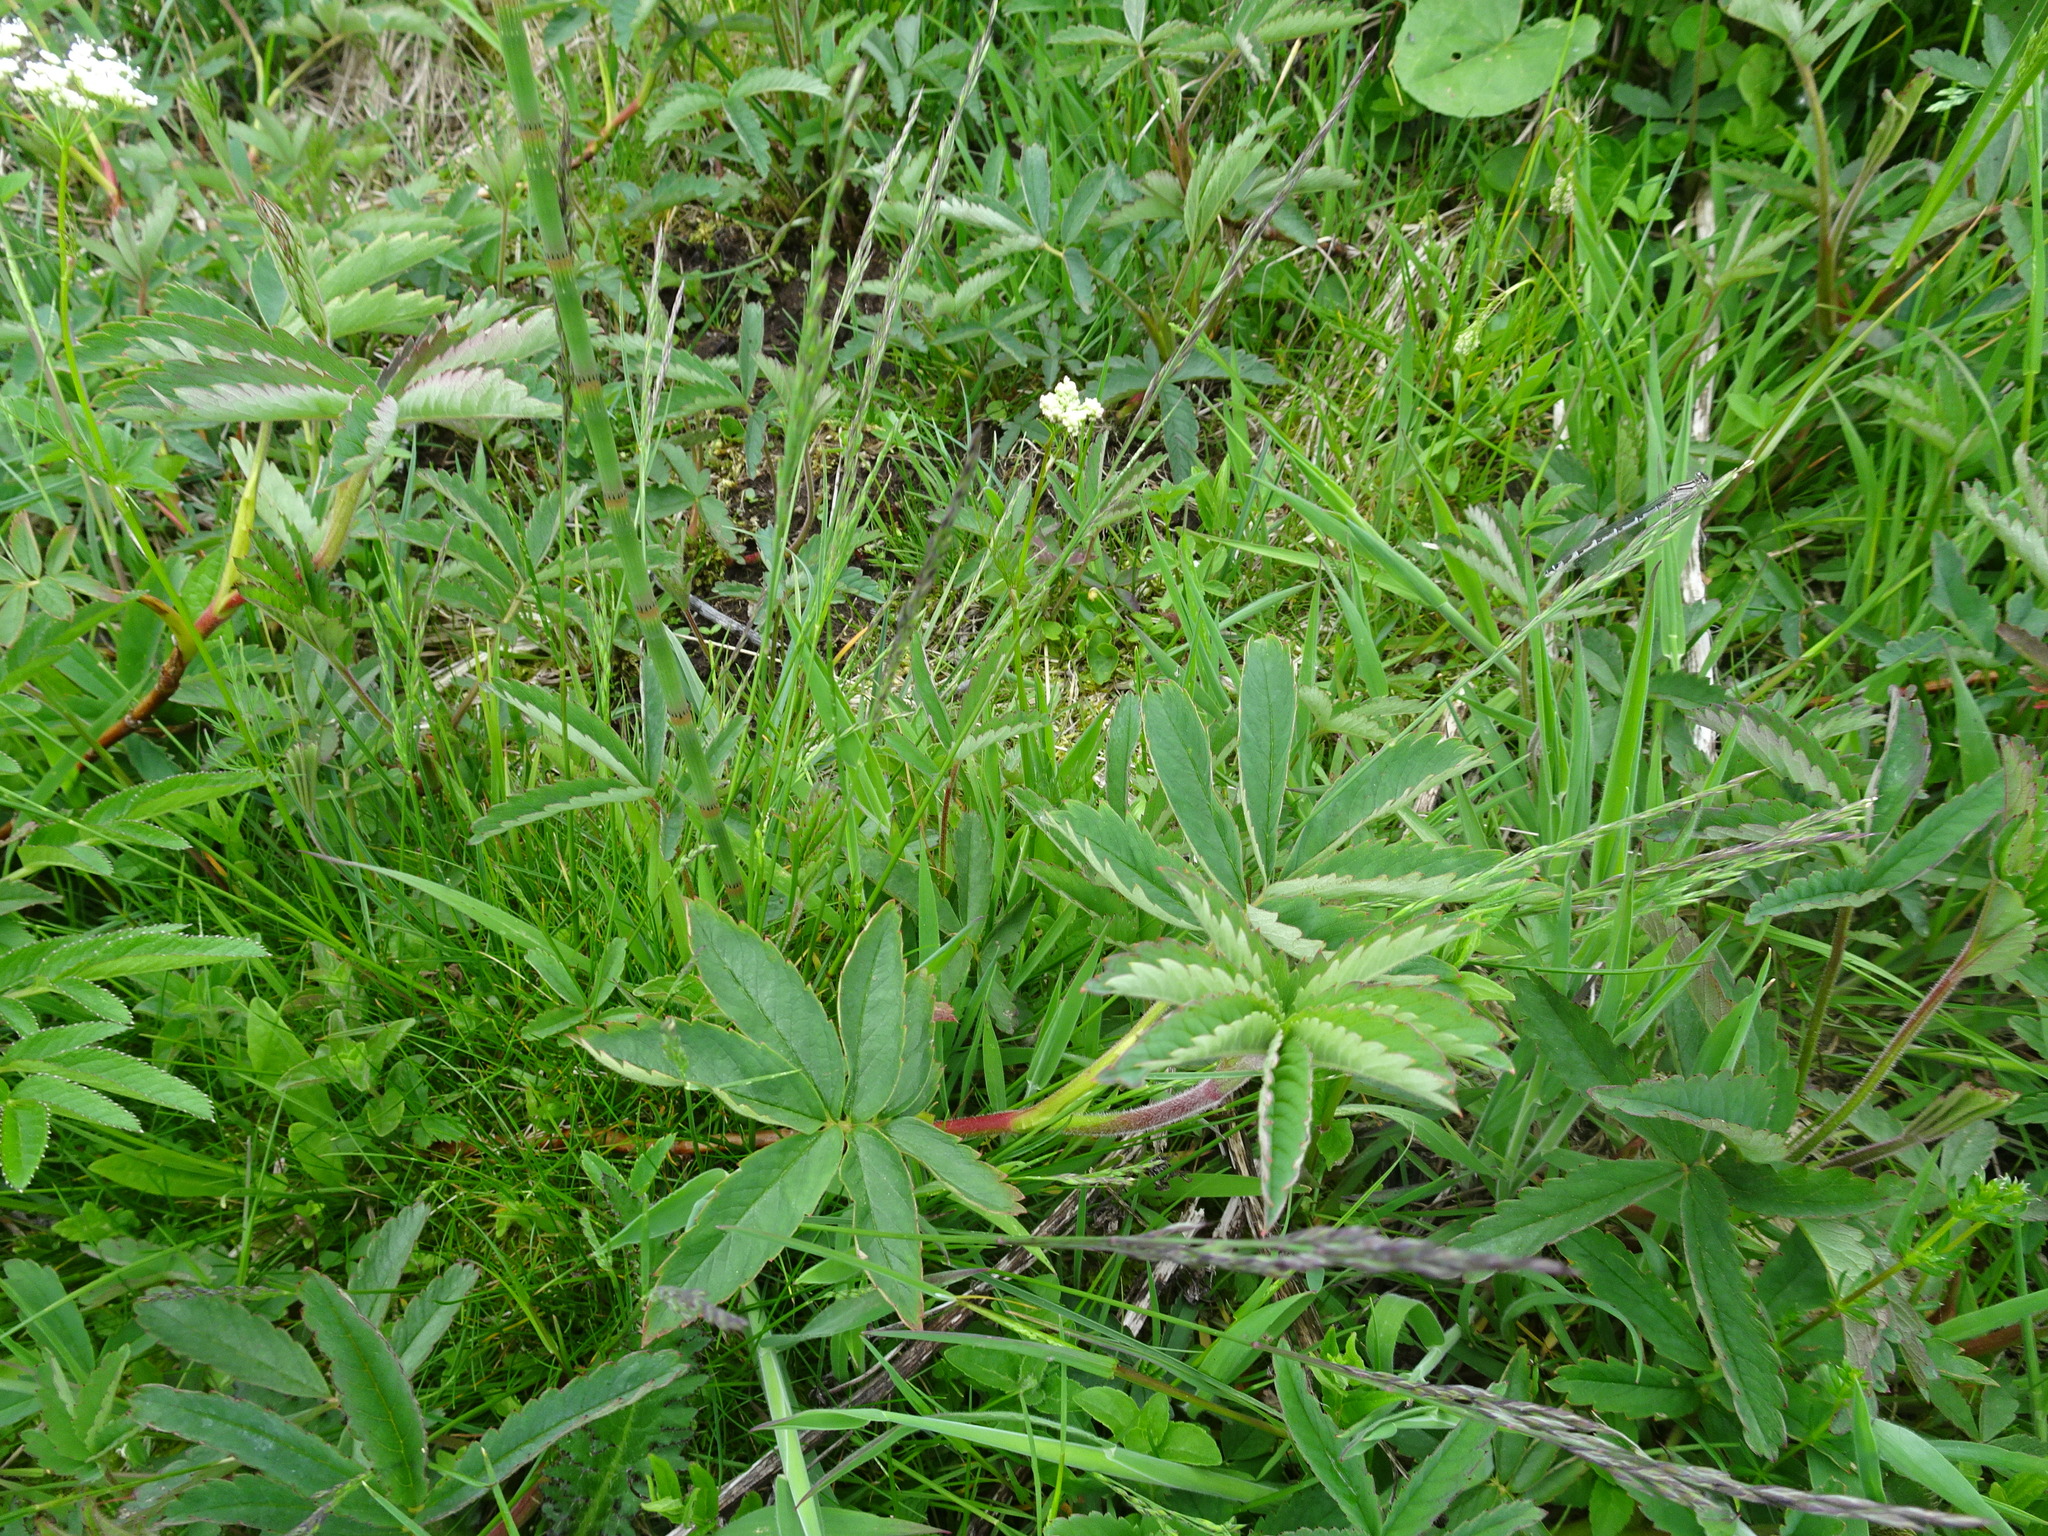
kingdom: Plantae
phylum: Tracheophyta
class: Magnoliopsida
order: Rosales
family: Rosaceae
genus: Comarum
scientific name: Comarum palustre
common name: Marsh cinquefoil
